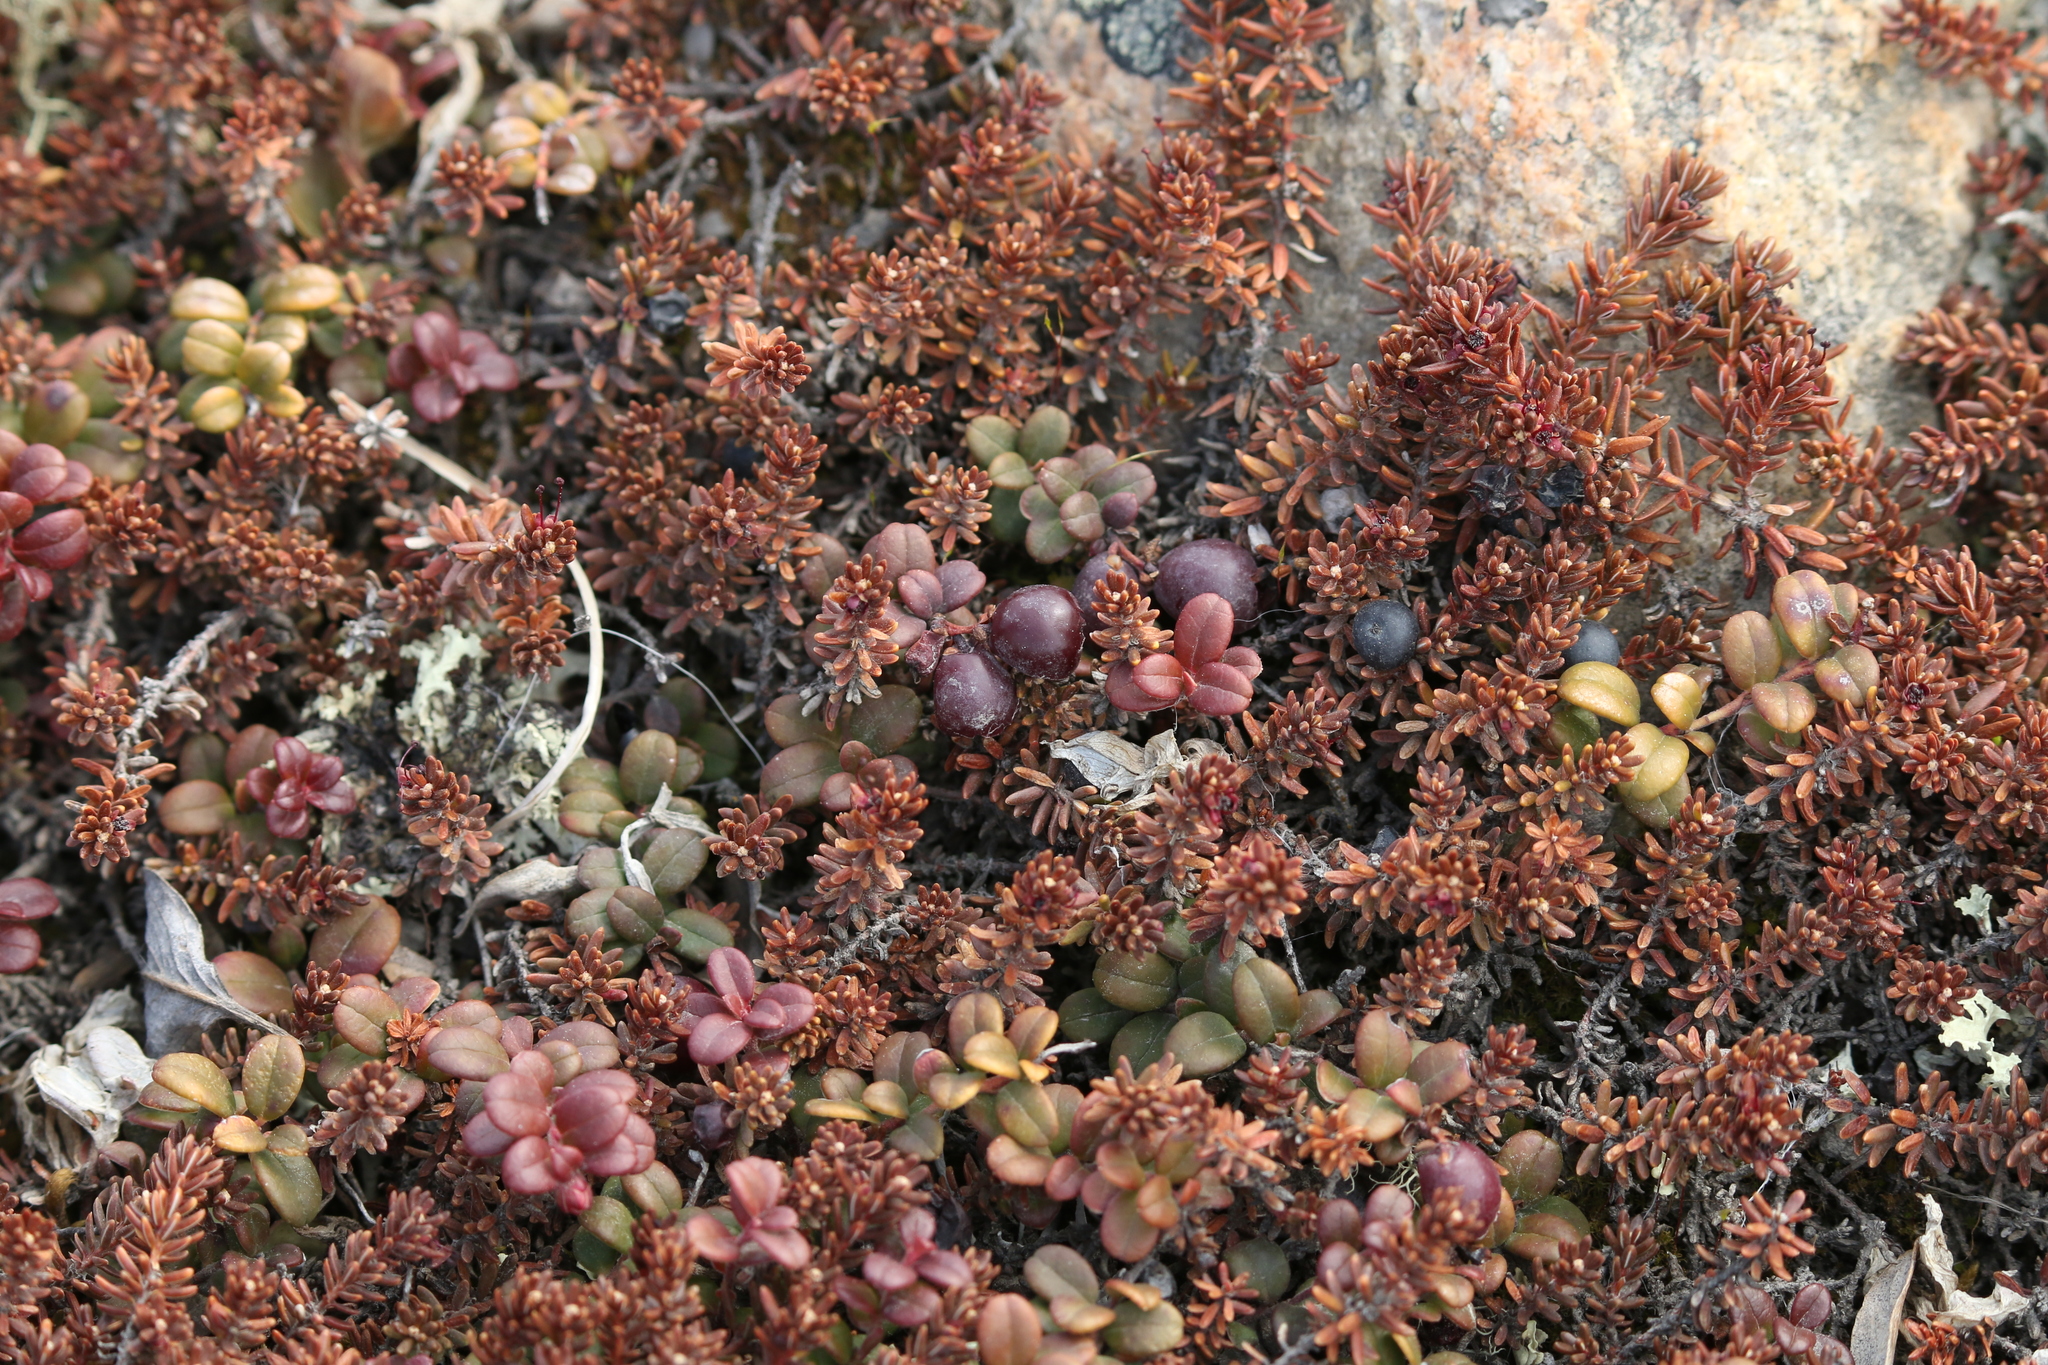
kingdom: Plantae
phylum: Tracheophyta
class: Magnoliopsida
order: Ericales
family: Ericaceae
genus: Empetrum
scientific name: Empetrum nigrum
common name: Black crowberry
